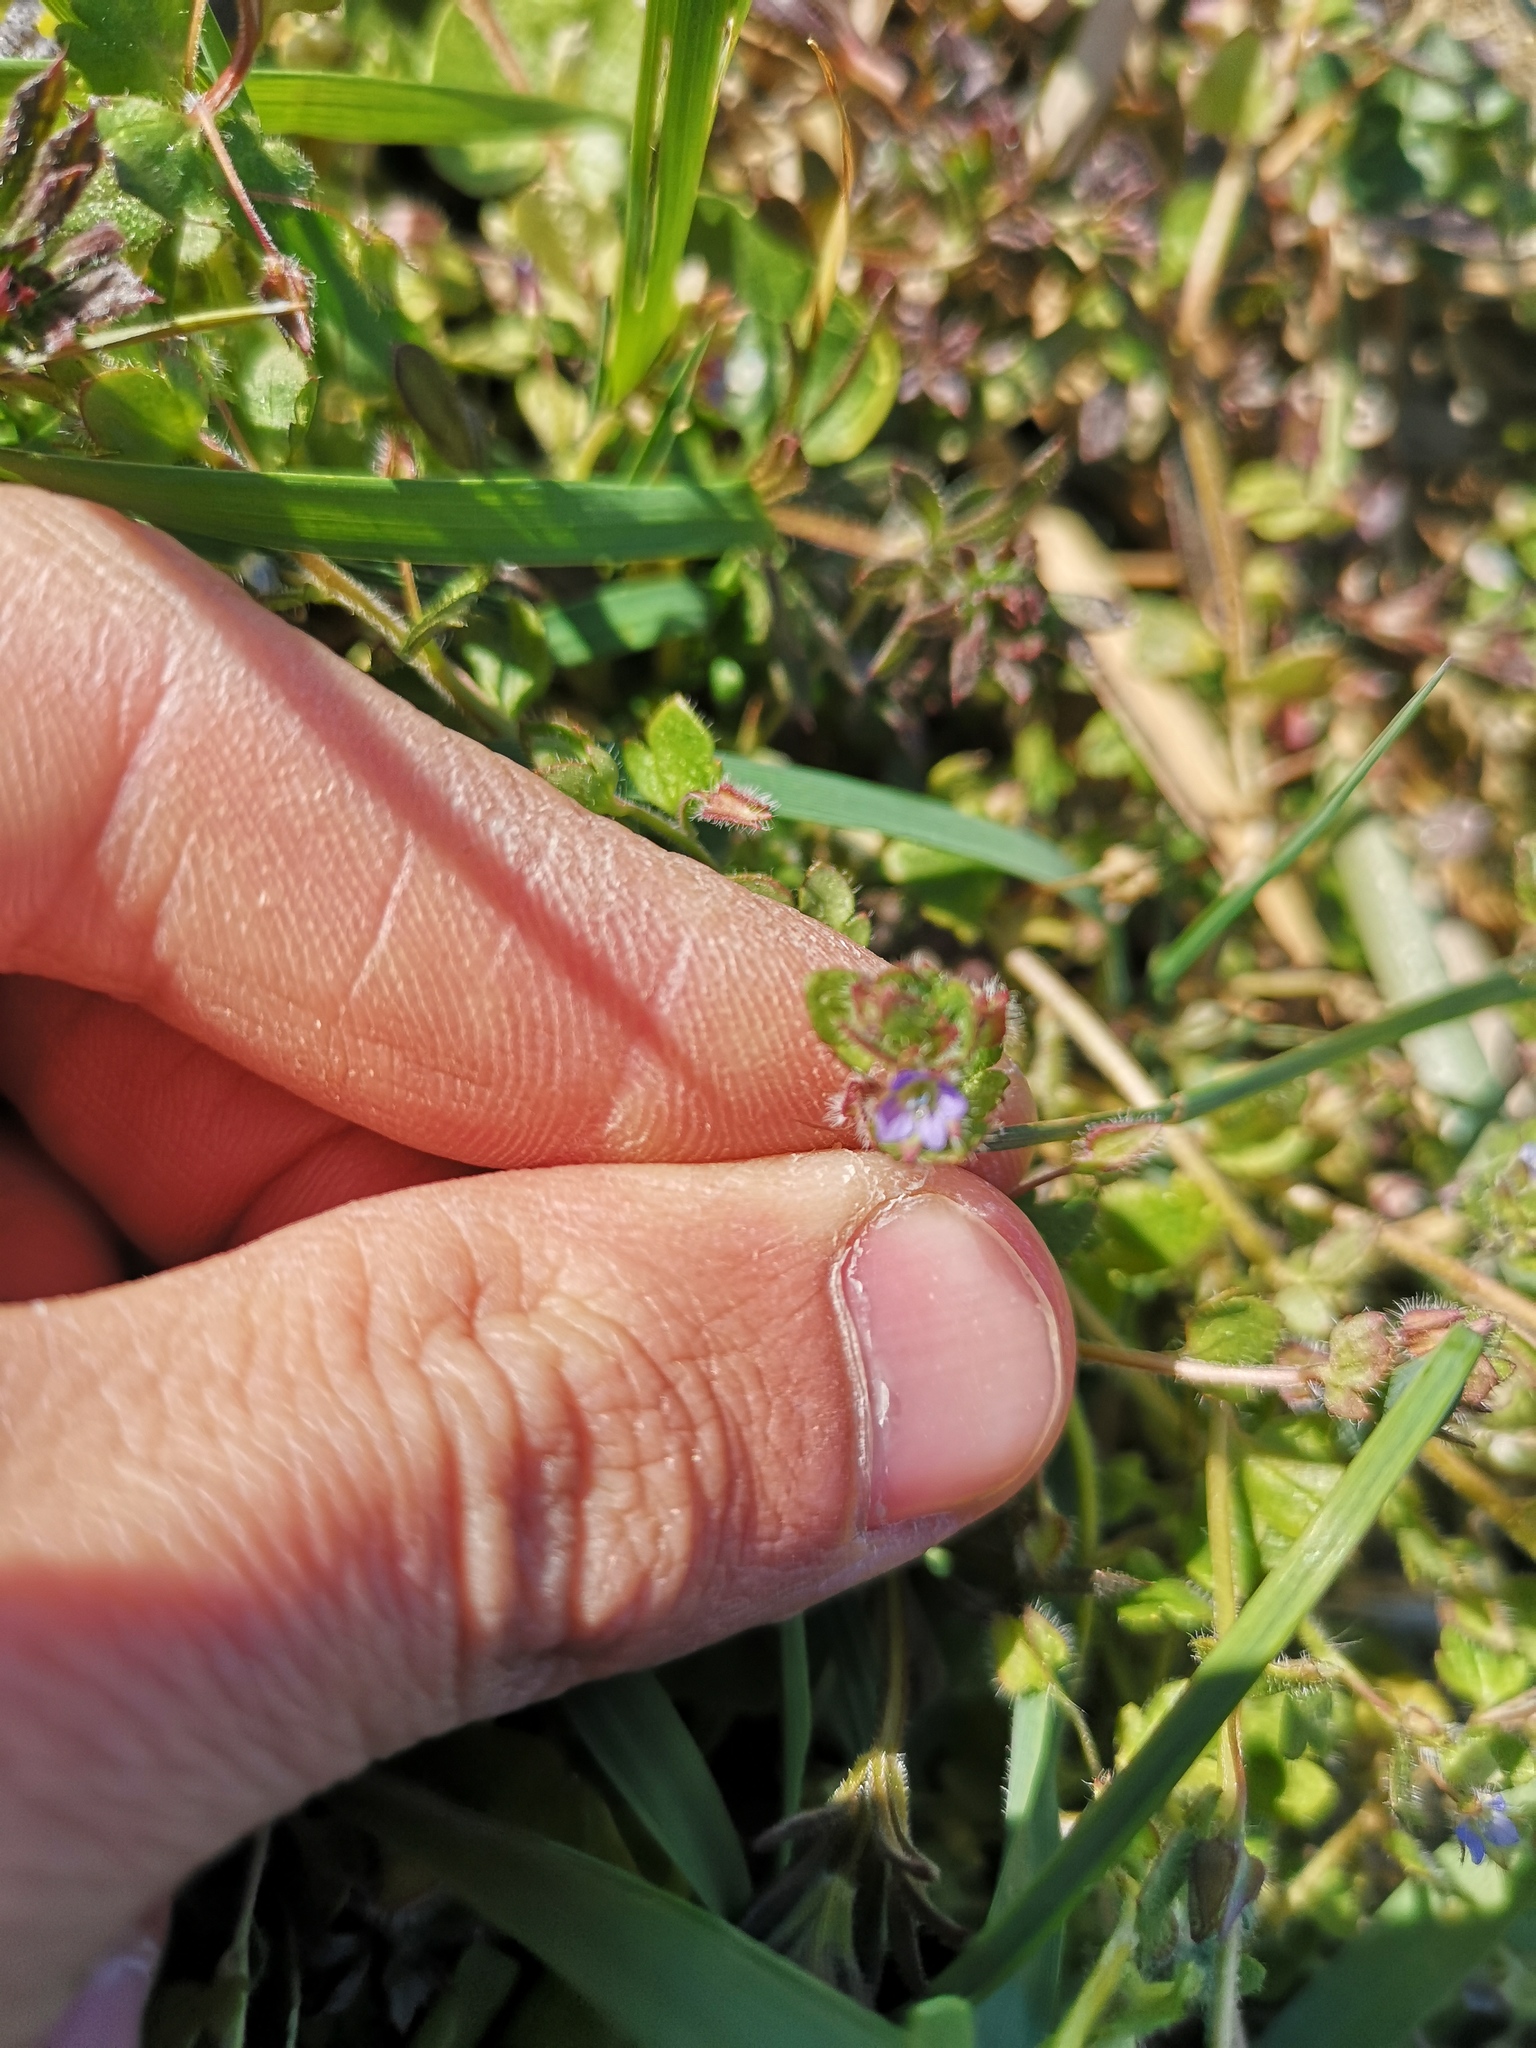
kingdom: Plantae
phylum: Tracheophyta
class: Magnoliopsida
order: Lamiales
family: Plantaginaceae
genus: Veronica
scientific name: Veronica hederifolia
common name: Ivy-leaved speedwell
